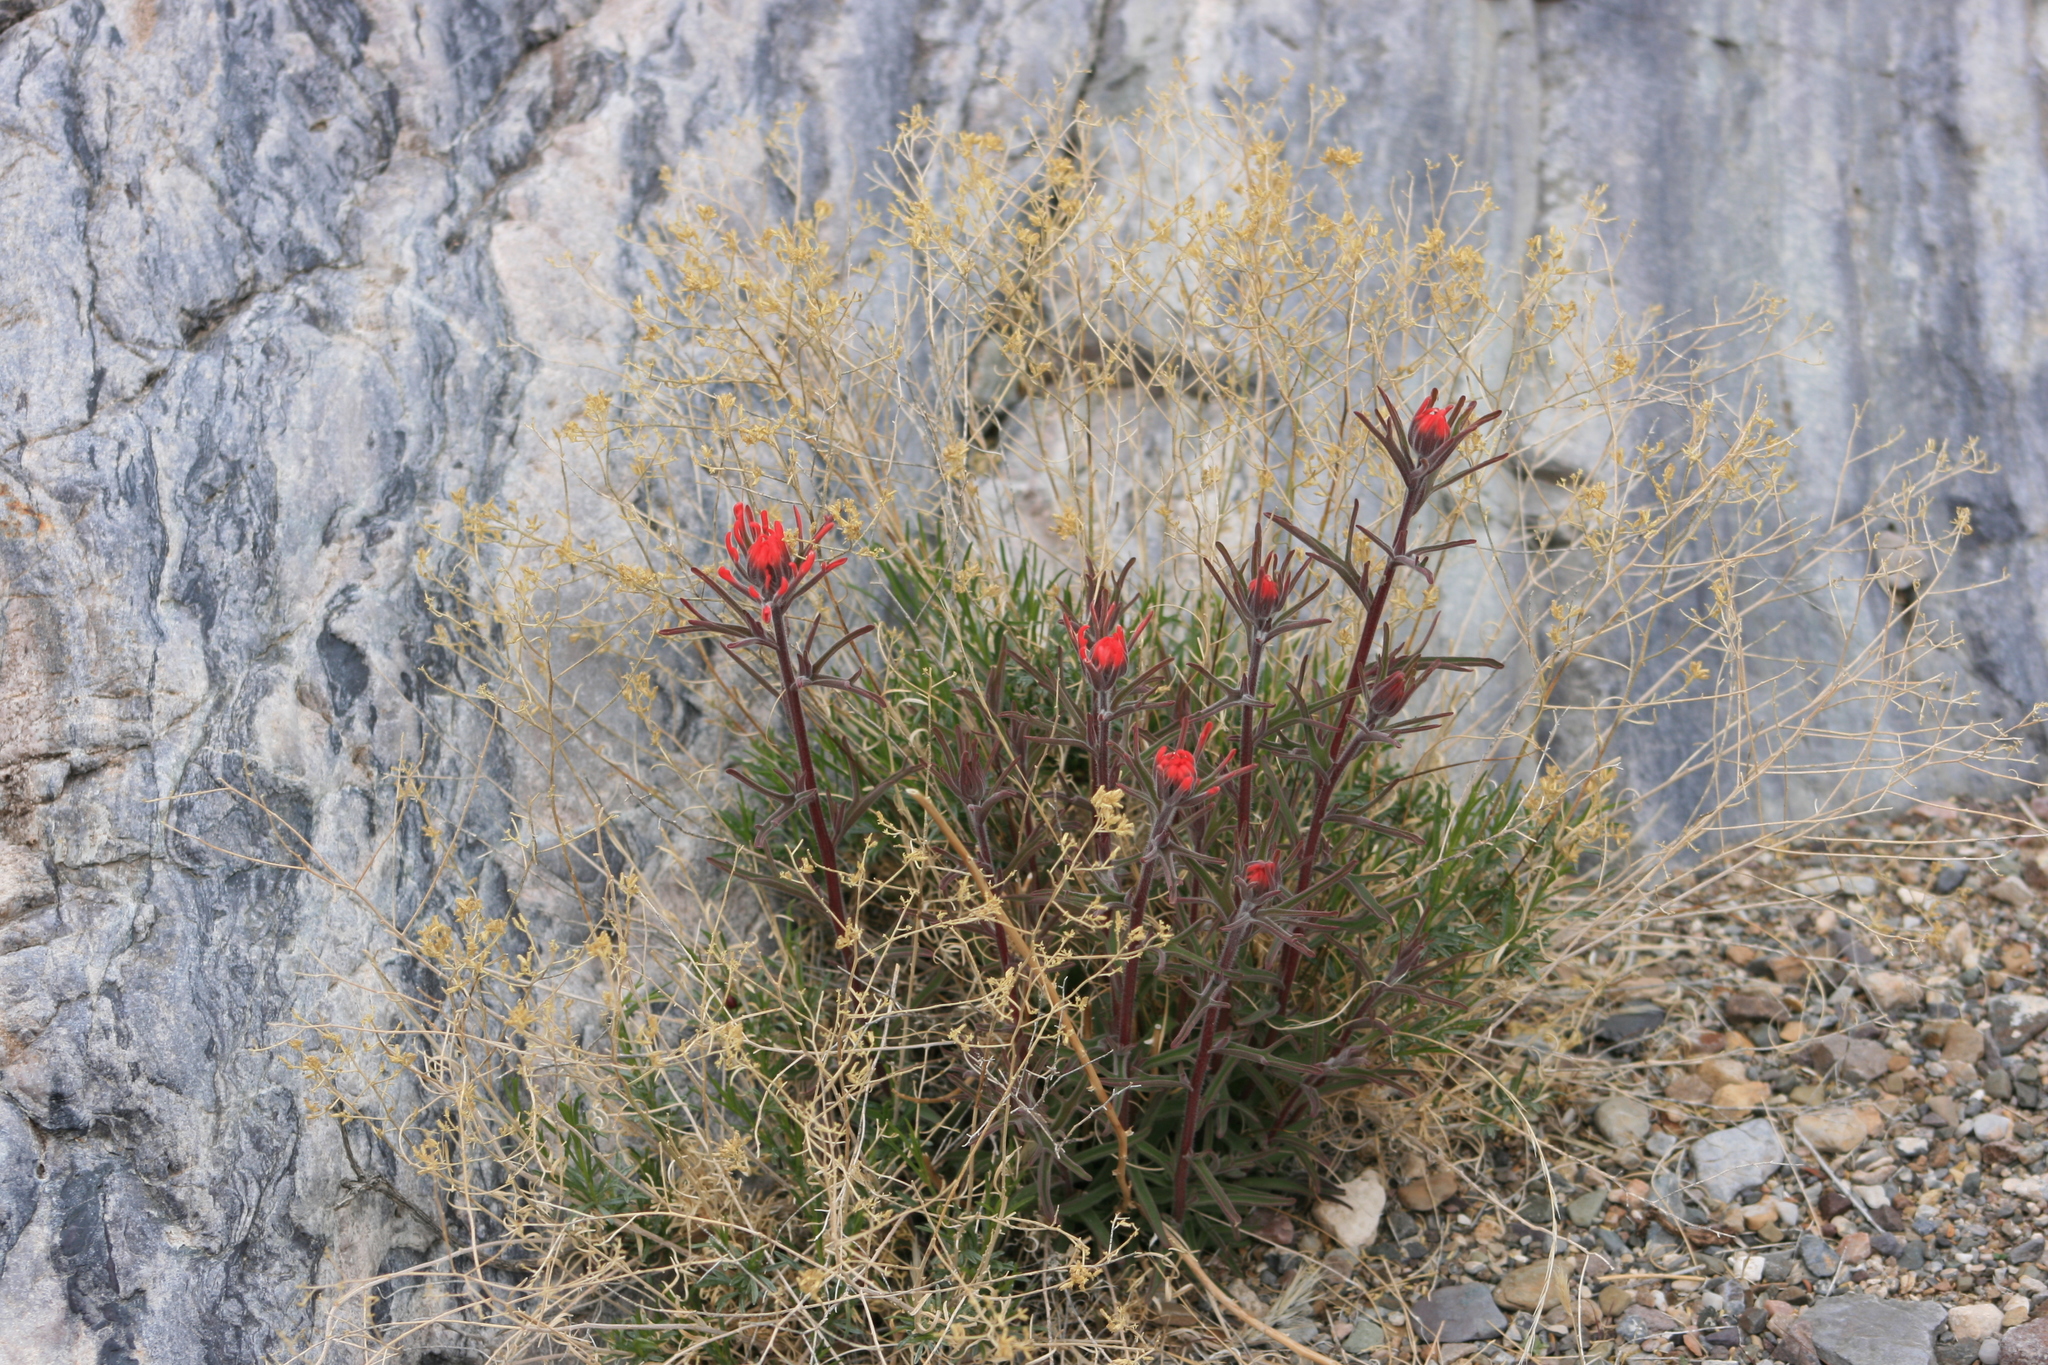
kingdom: Plantae
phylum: Tracheophyta
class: Magnoliopsida
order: Lamiales
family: Orobanchaceae
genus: Castilleja
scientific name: Castilleja chromosa
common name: Desert paintbrush
